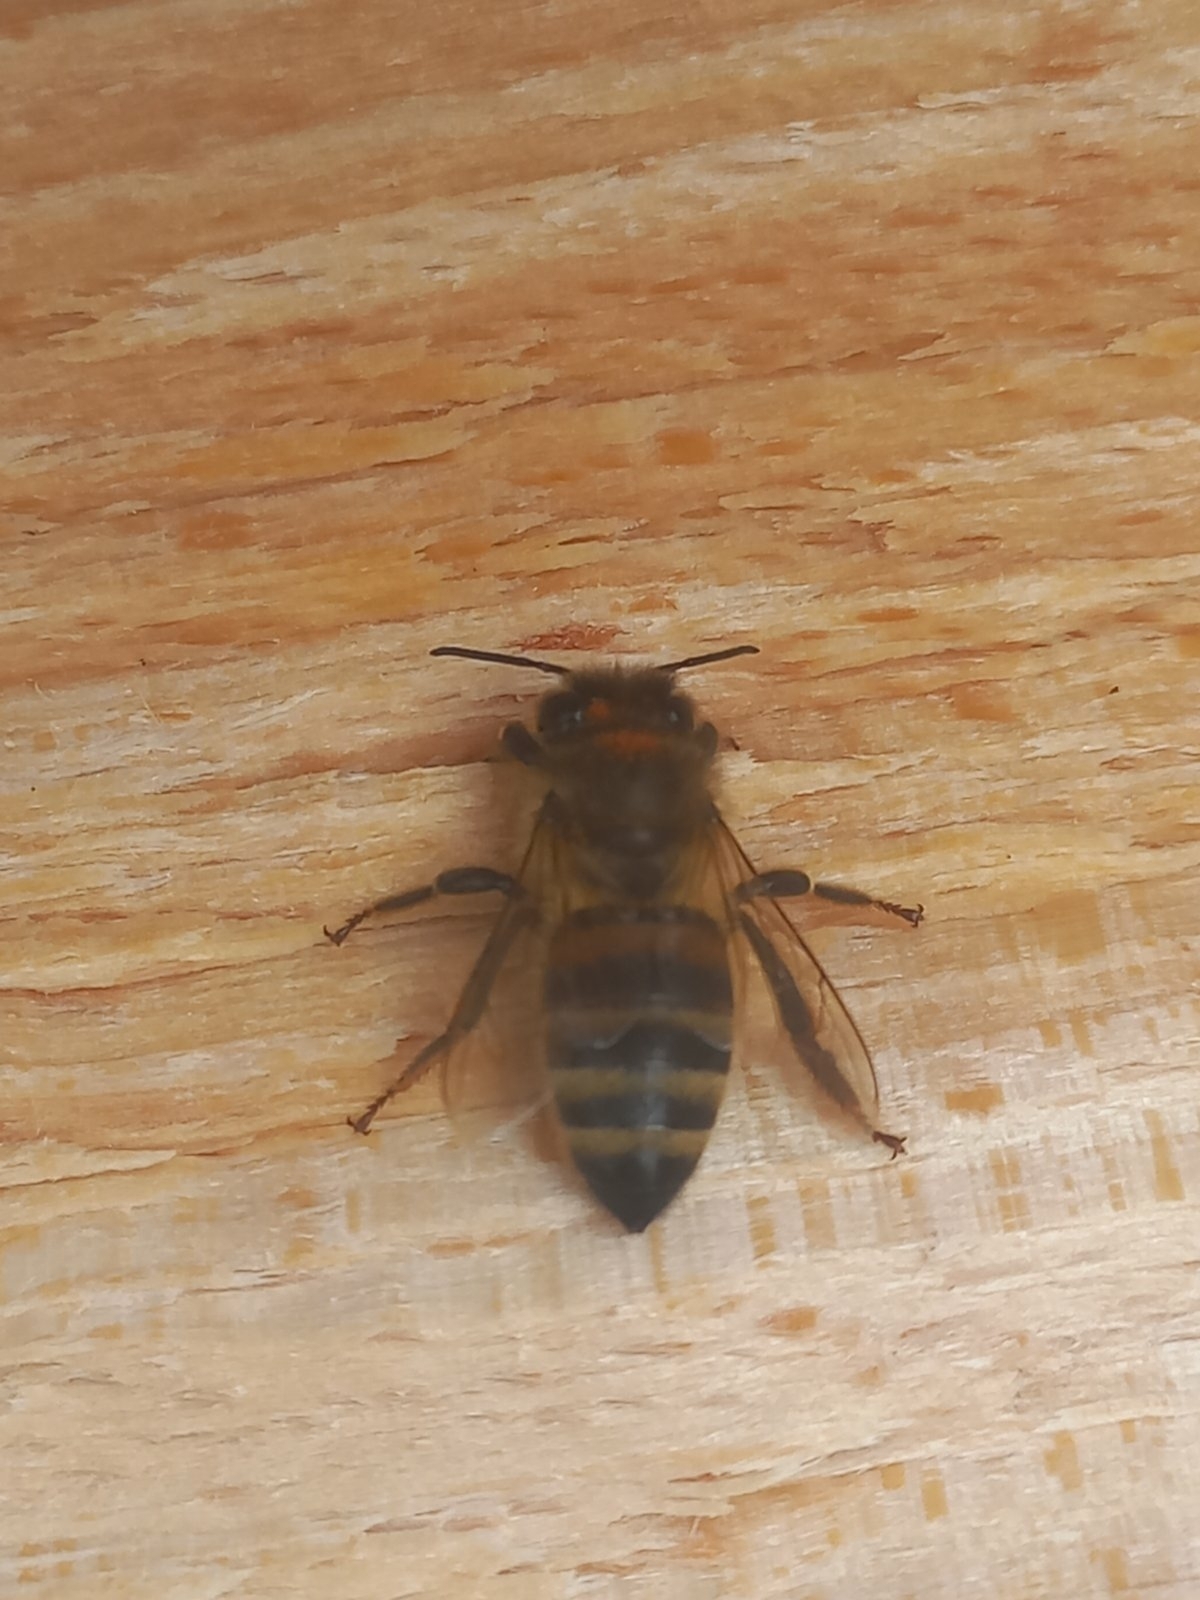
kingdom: Animalia
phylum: Arthropoda
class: Insecta
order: Hymenoptera
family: Apidae
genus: Apis
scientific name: Apis mellifera
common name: Honey bee
